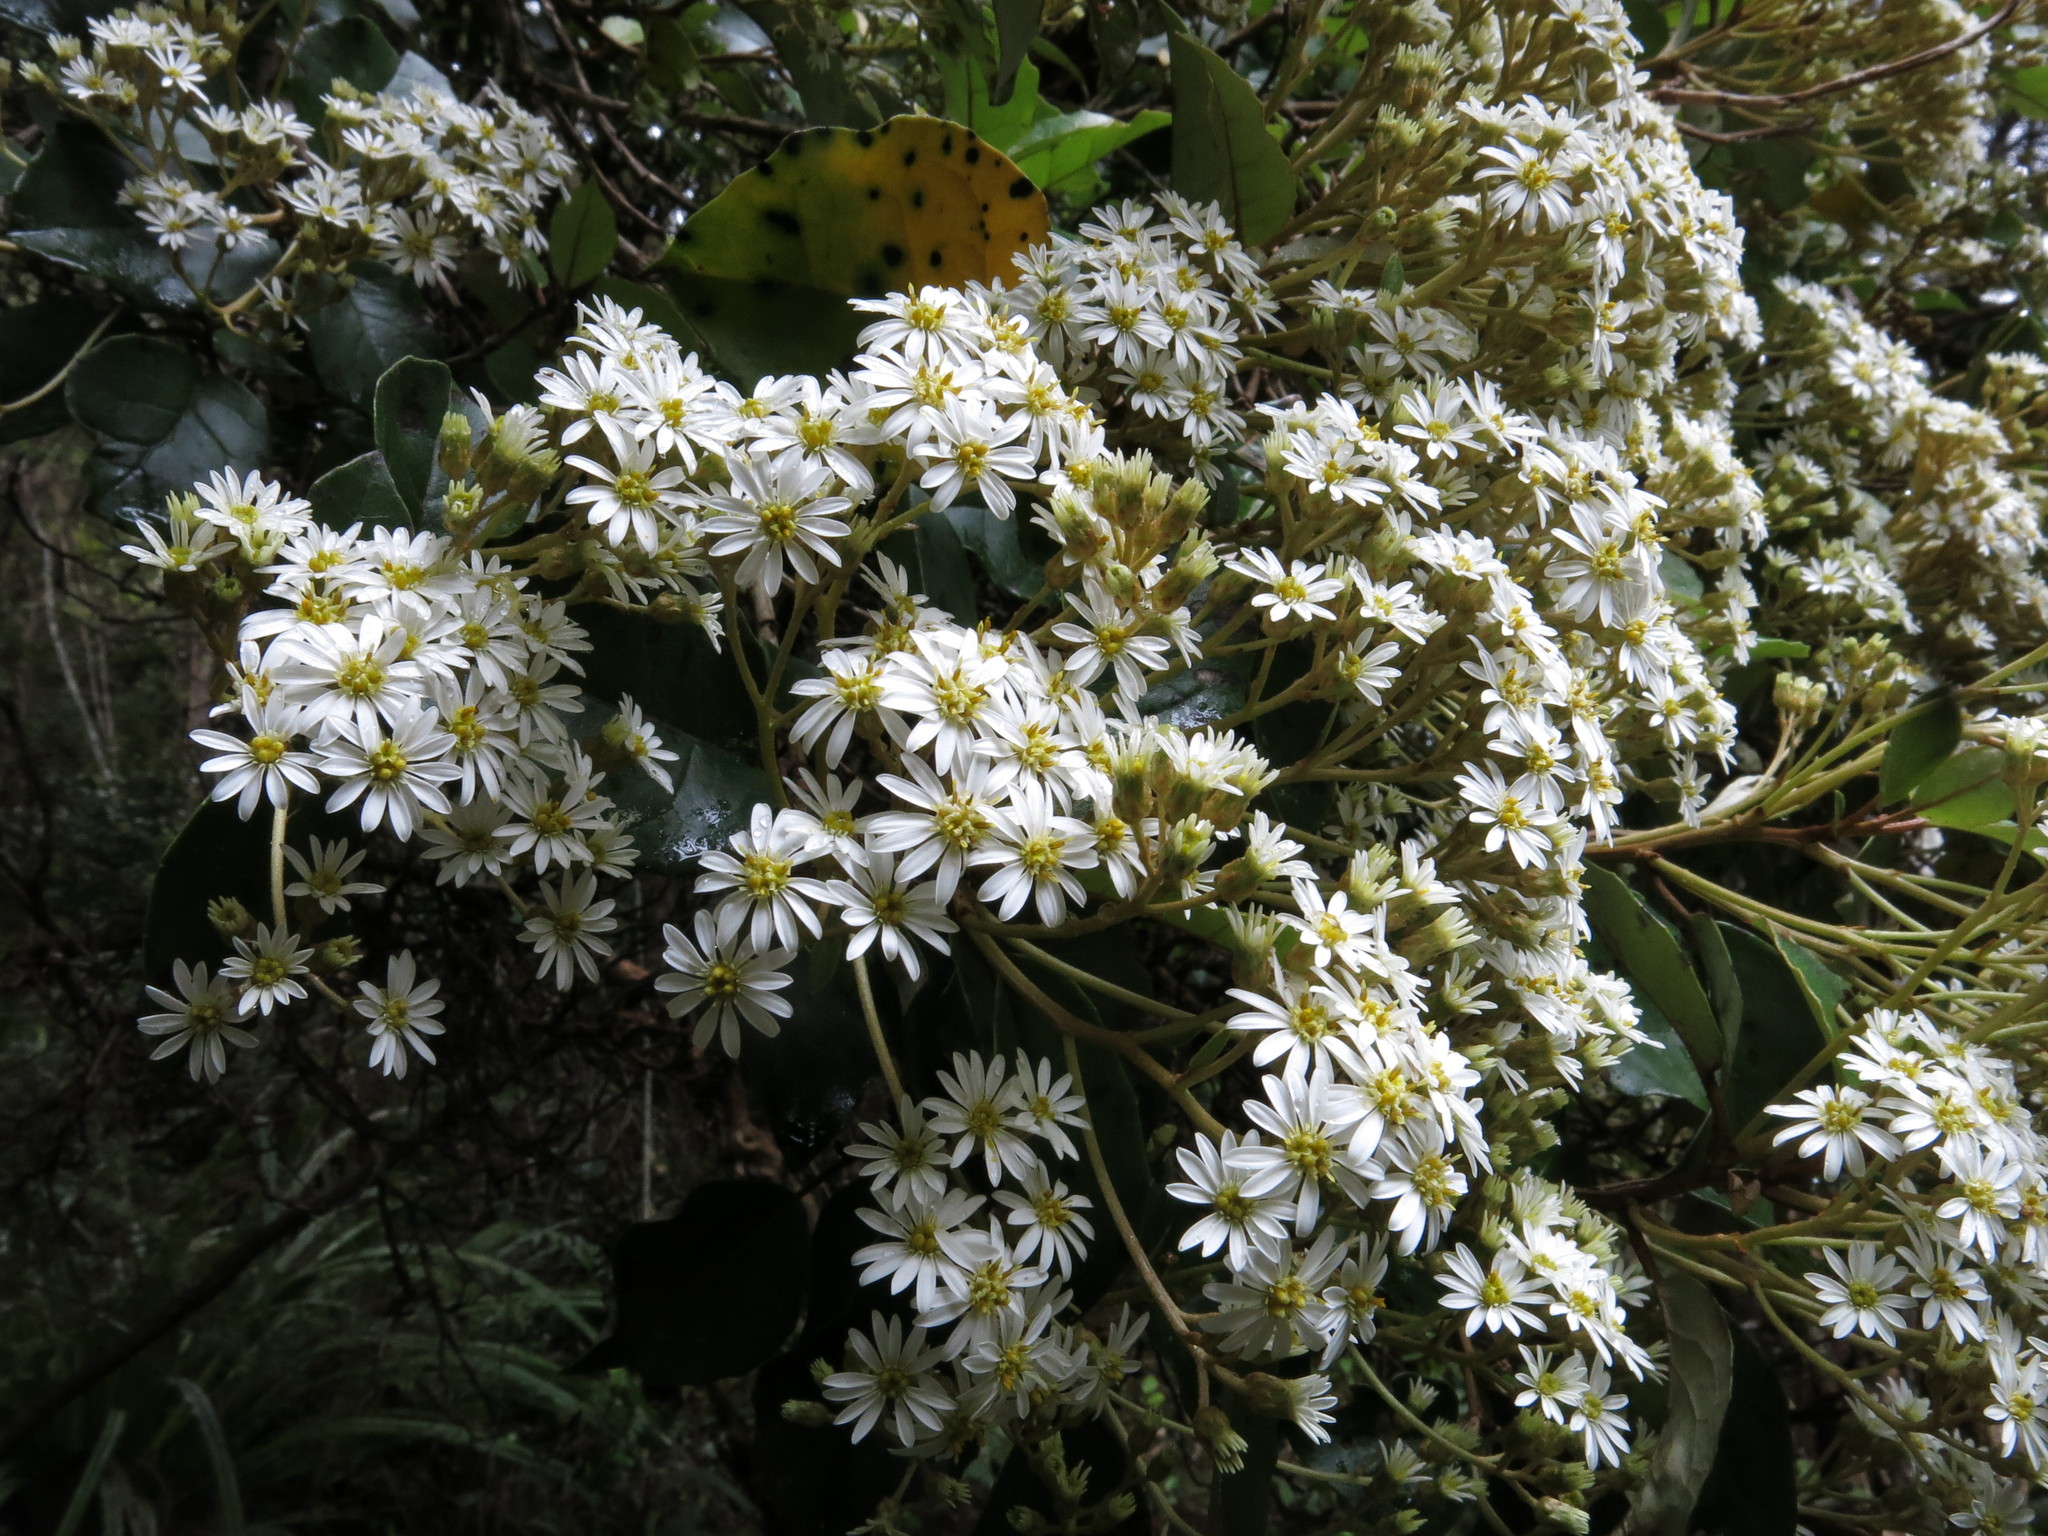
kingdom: Plantae
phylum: Tracheophyta
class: Magnoliopsida
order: Asterales
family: Asteraceae
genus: Olearia
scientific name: Olearia arborescens
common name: Glossy tree daisy
